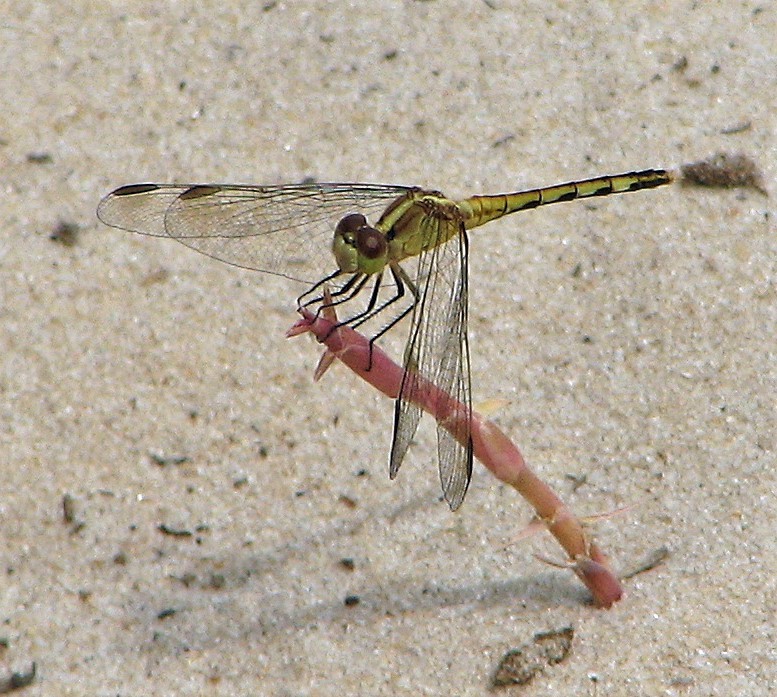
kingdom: Animalia
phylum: Arthropoda
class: Insecta
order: Odonata
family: Libellulidae
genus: Erythrodiplax
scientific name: Erythrodiplax nigricans
